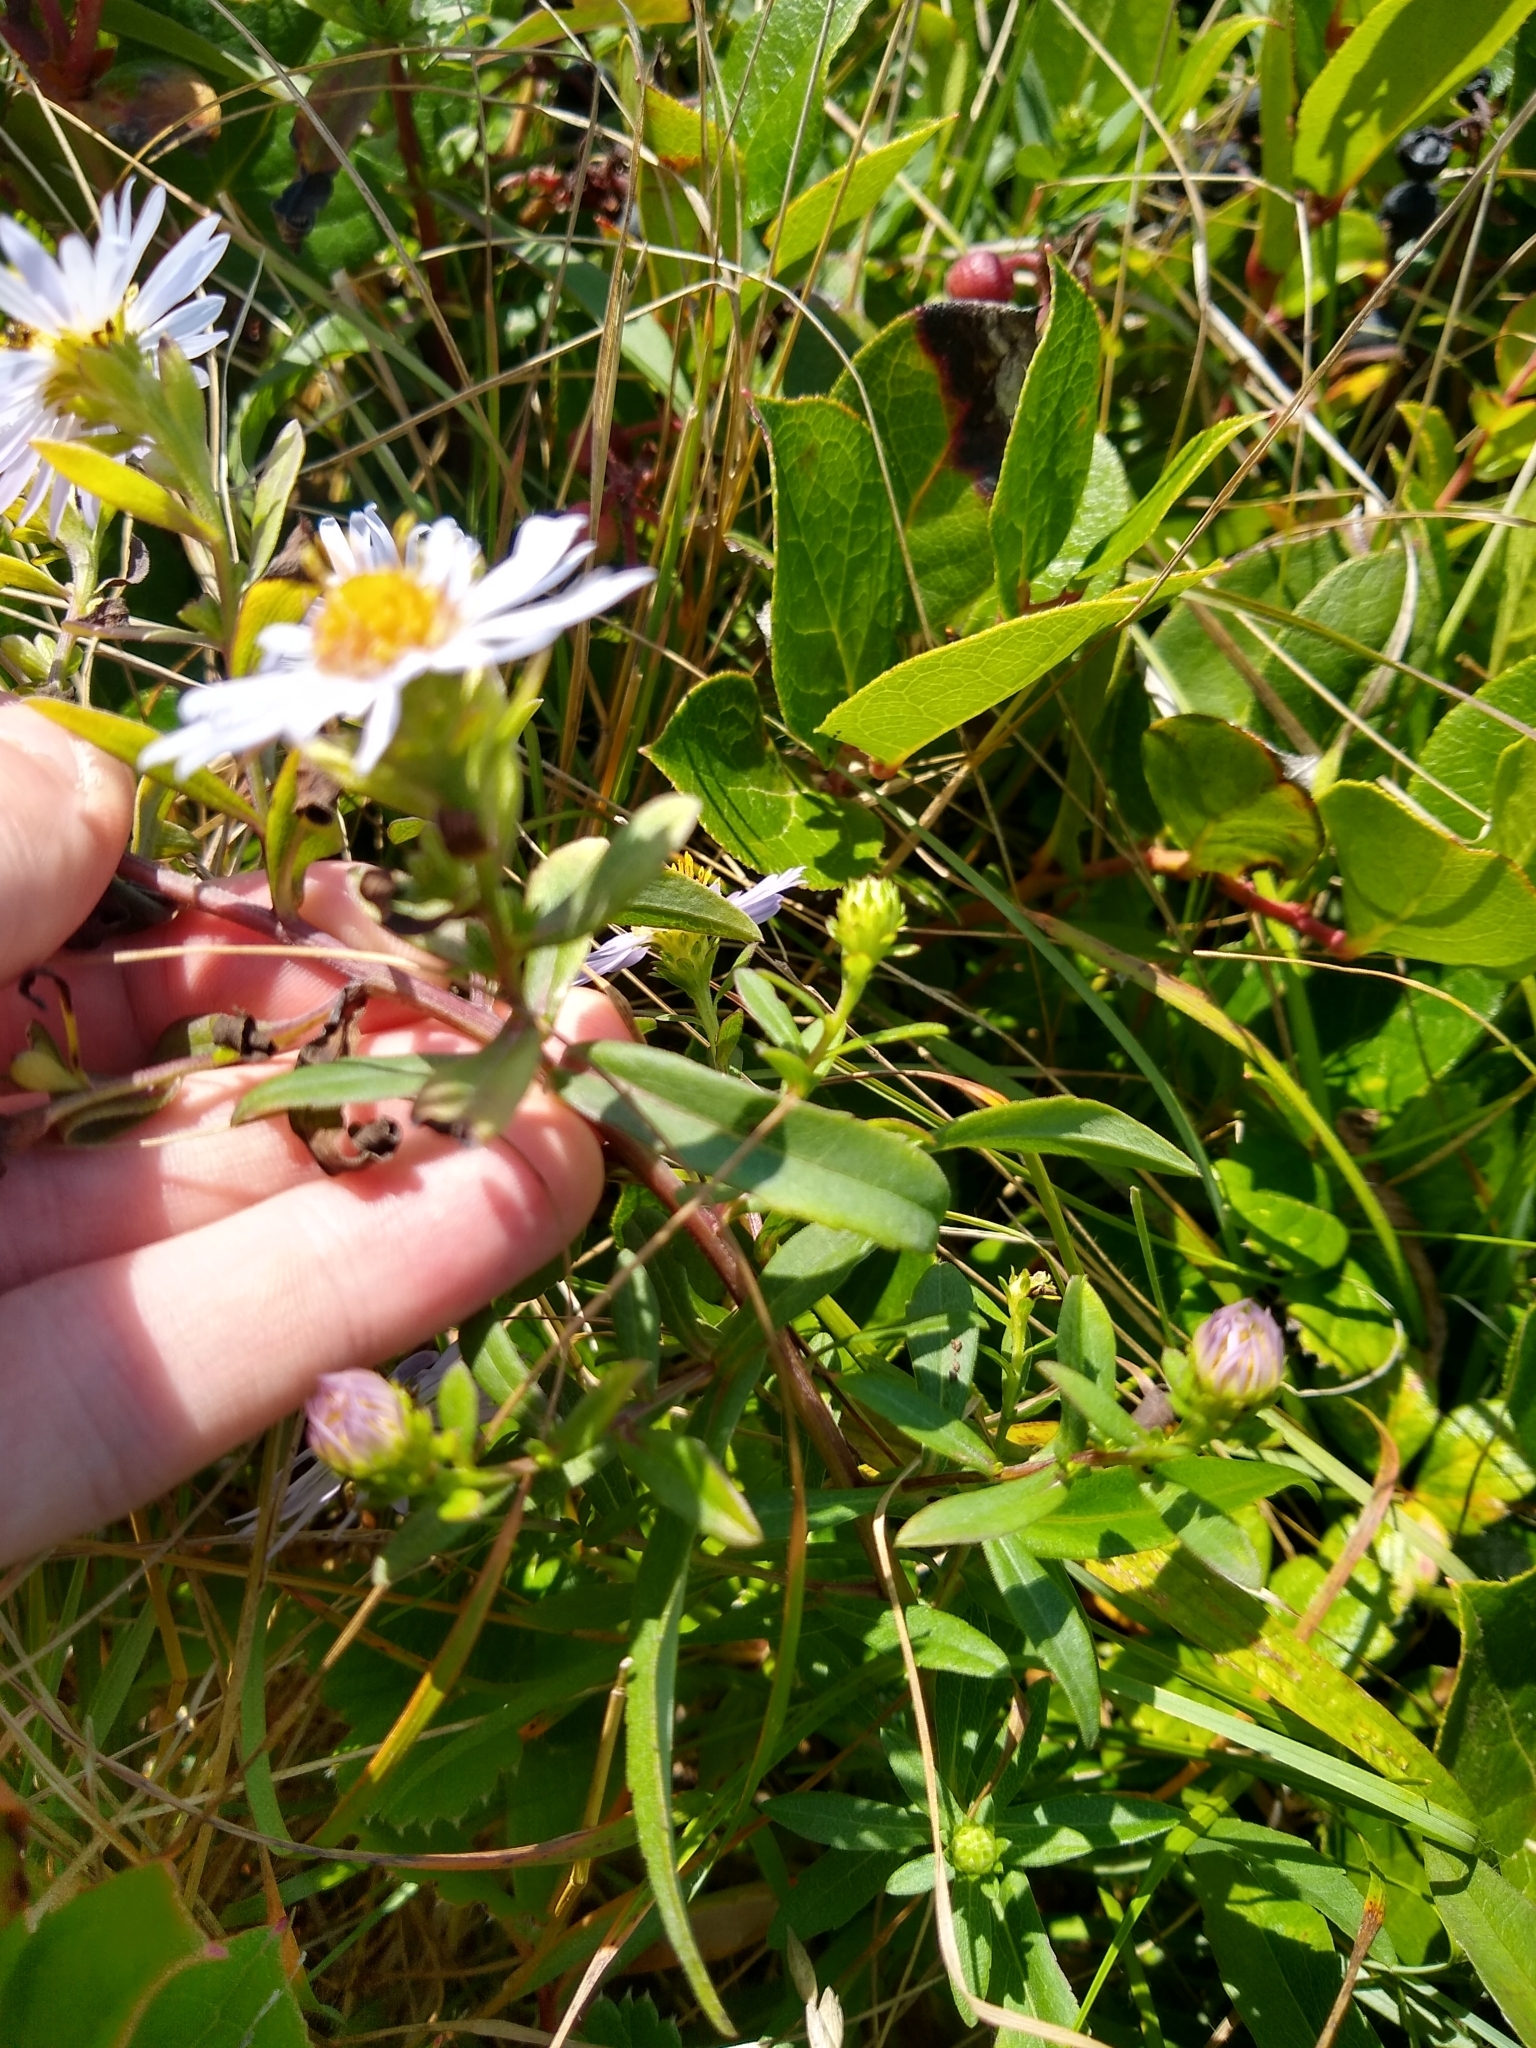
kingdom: Plantae
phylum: Tracheophyta
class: Magnoliopsida
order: Asterales
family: Asteraceae
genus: Symphyotrichum
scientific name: Symphyotrichum
